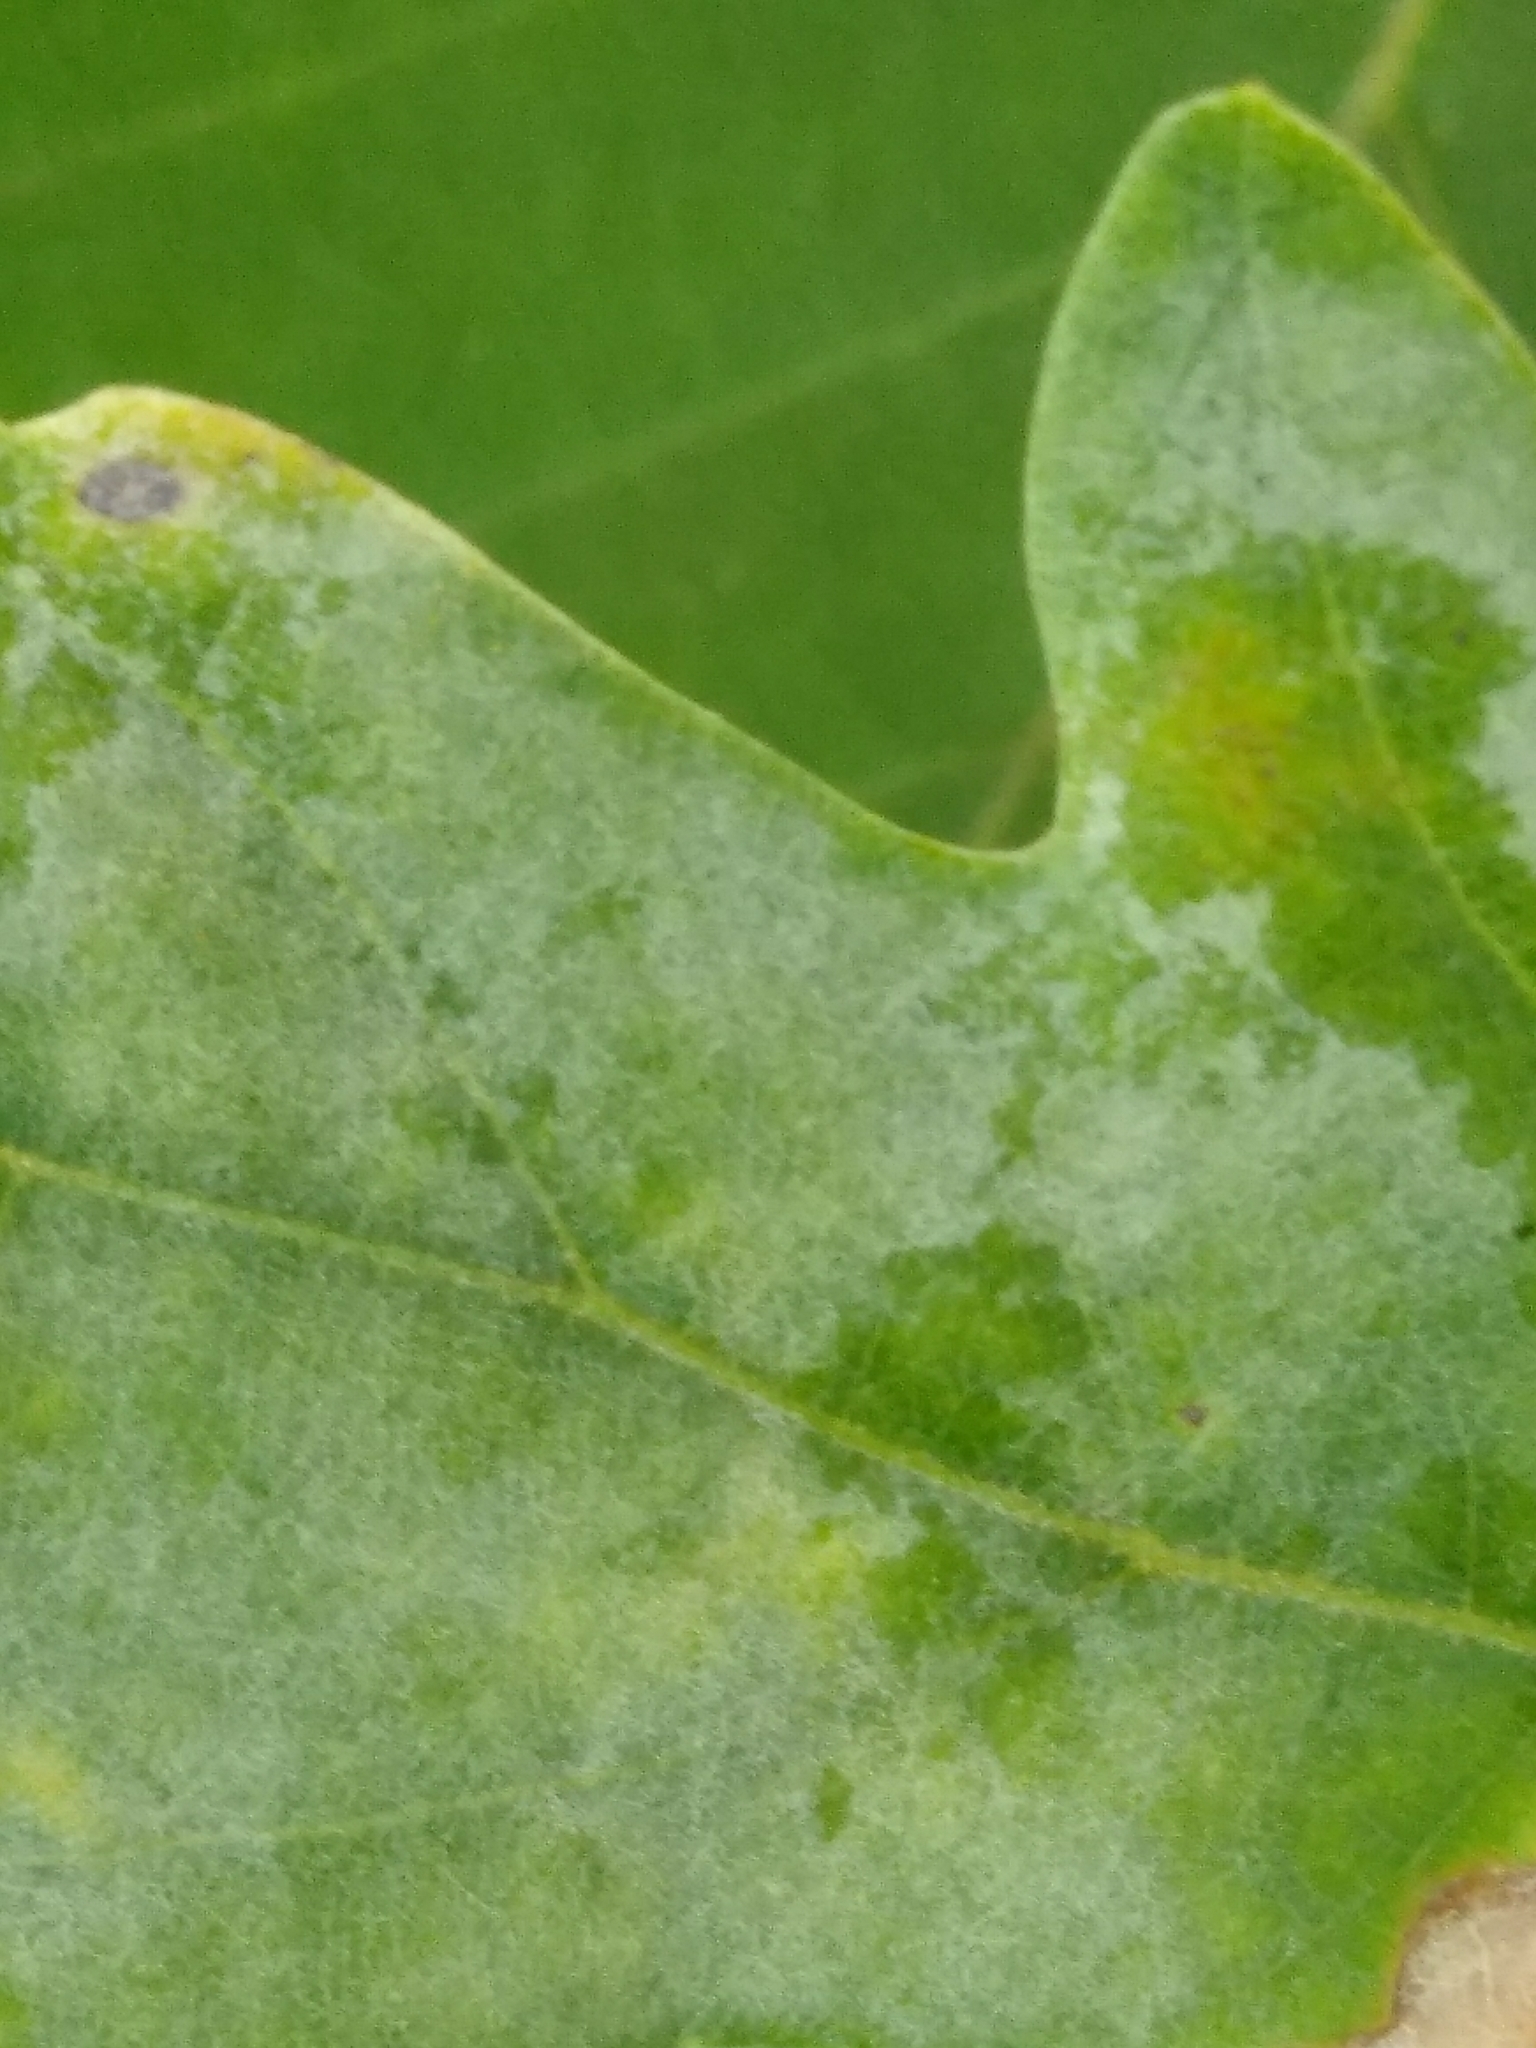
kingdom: Fungi
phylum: Ascomycota
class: Leotiomycetes
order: Helotiales
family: Erysiphaceae
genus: Erysiphe
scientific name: Erysiphe alphitoides
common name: Oak mildew
